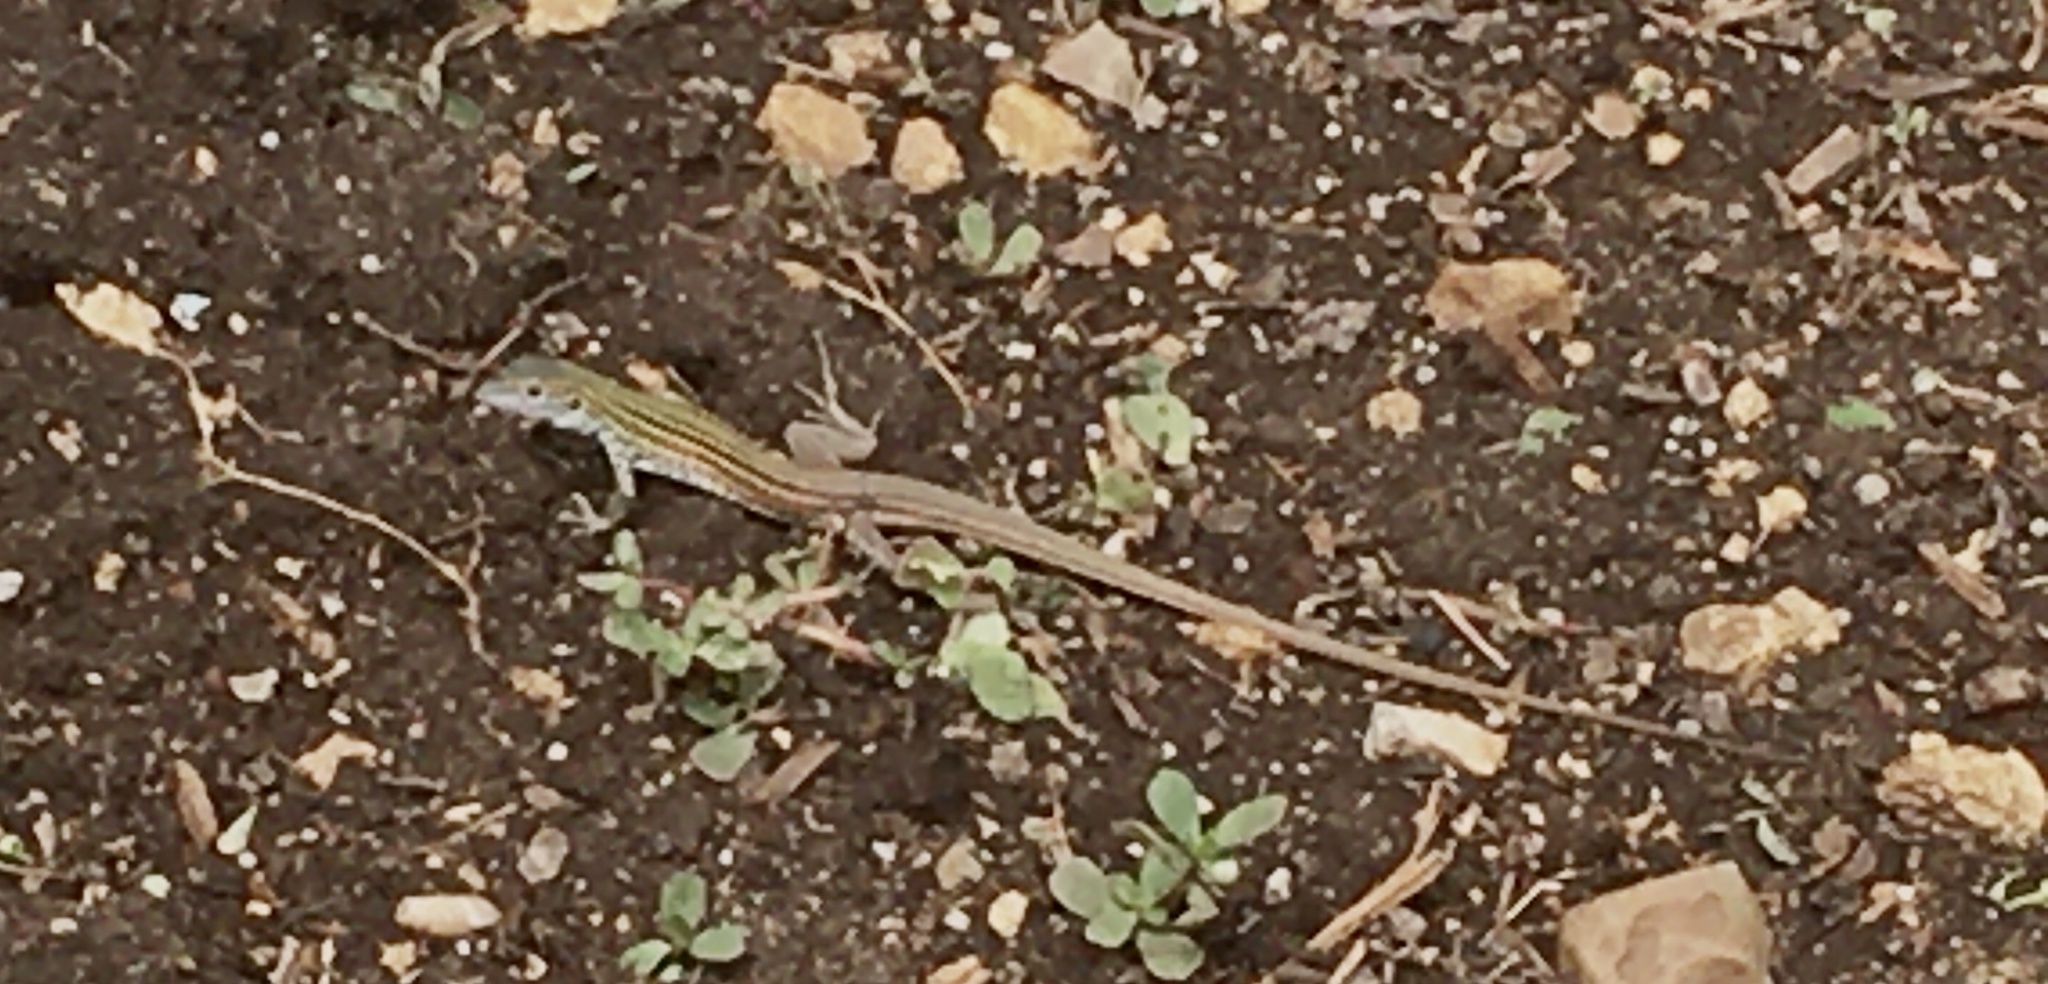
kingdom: Animalia
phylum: Chordata
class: Squamata
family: Teiidae
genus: Aspidoscelis
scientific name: Aspidoscelis gularis
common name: Eastern spotted whiptail
